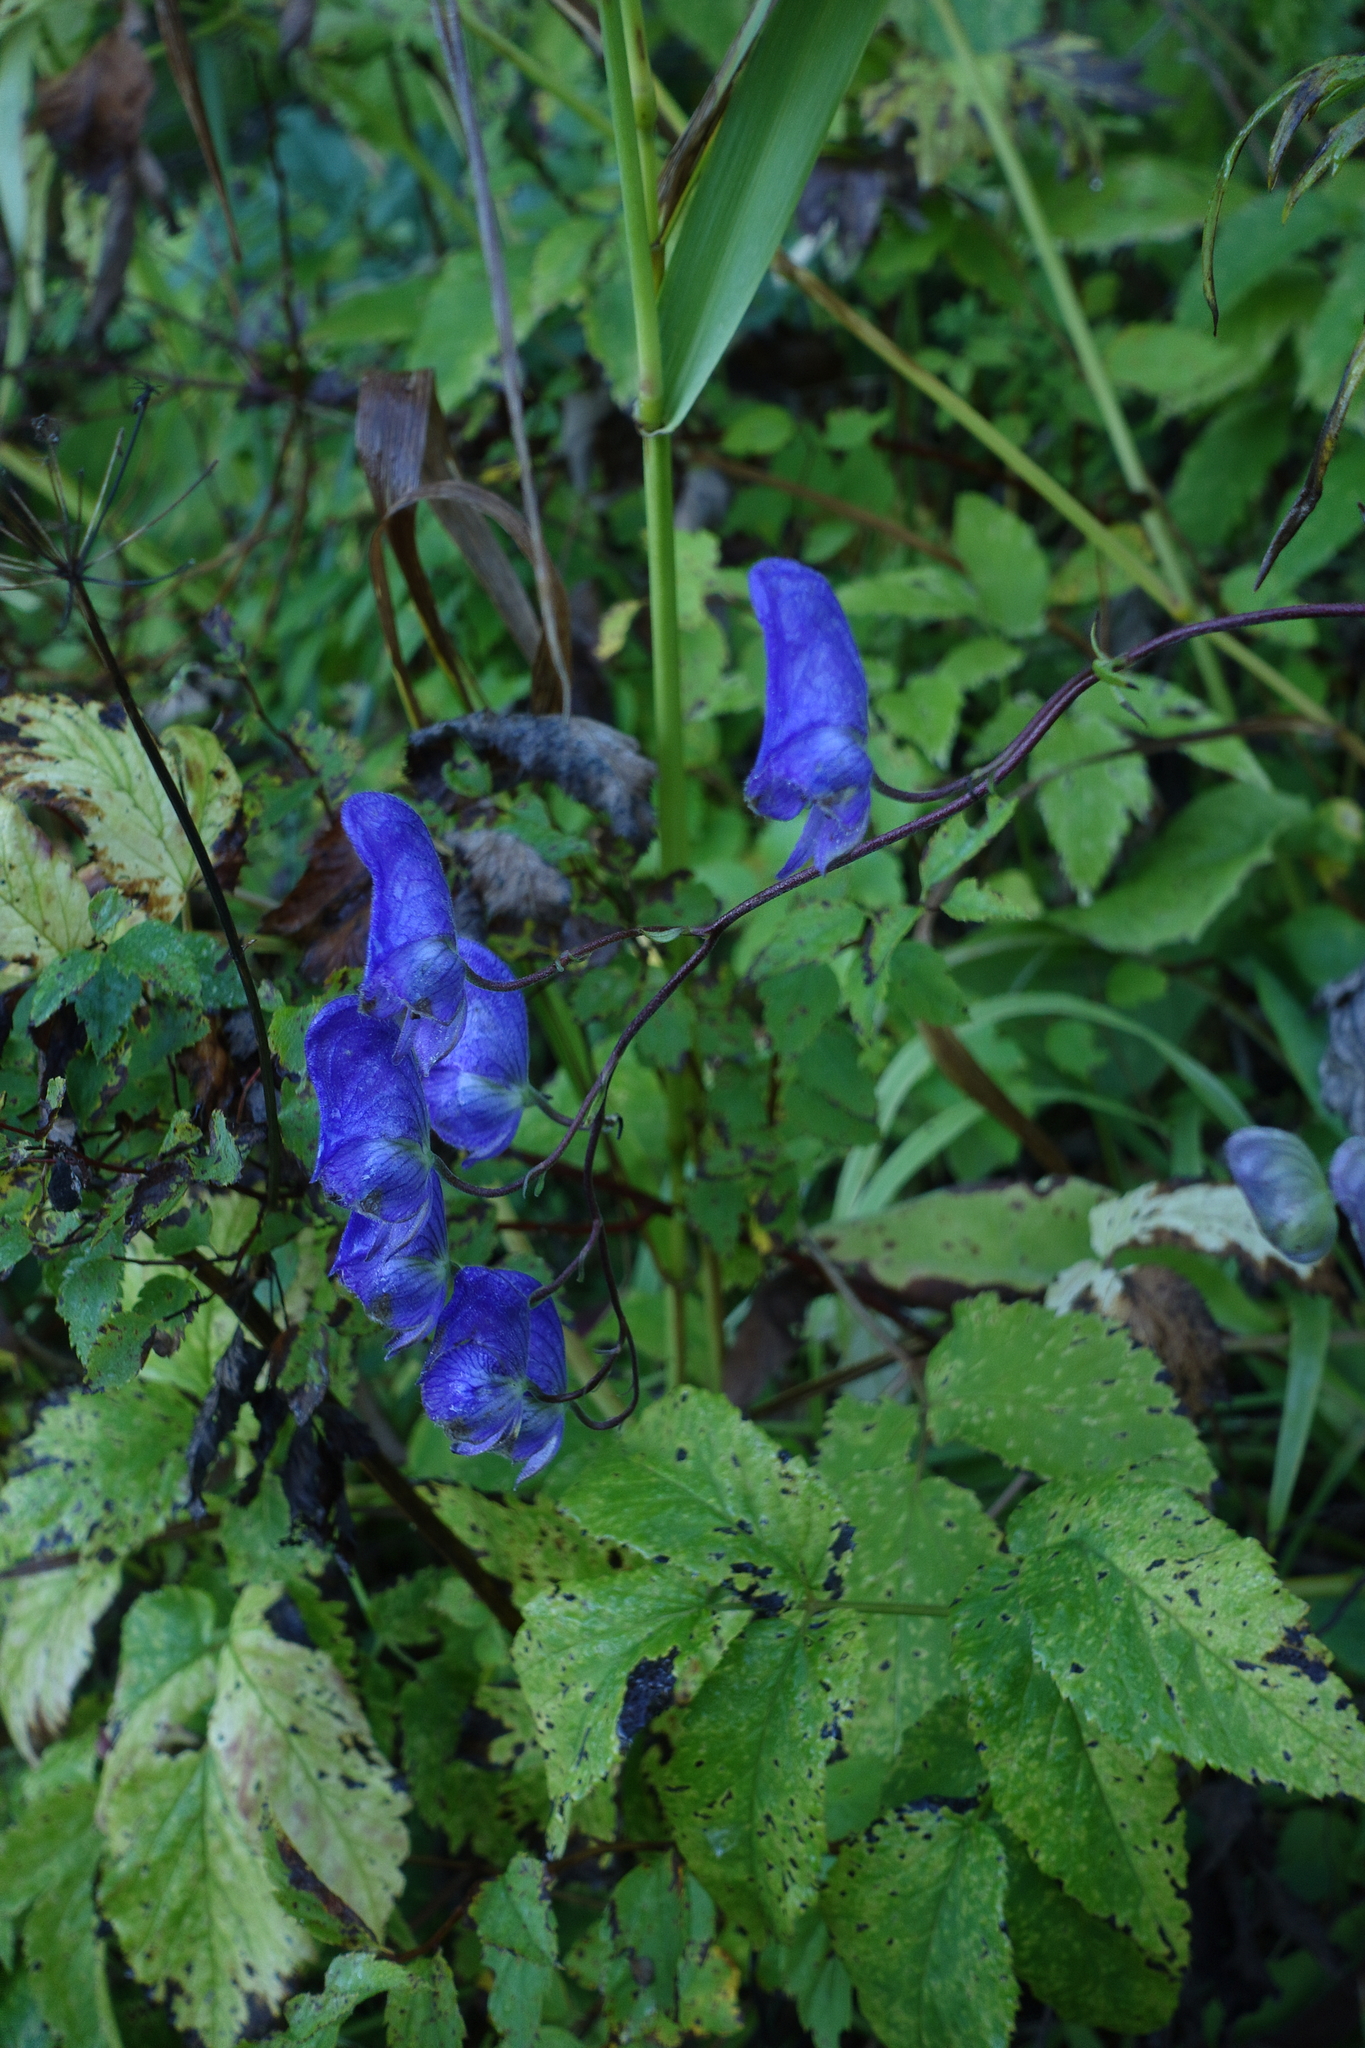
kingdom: Plantae
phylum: Tracheophyta
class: Magnoliopsida
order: Ranunculales
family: Ranunculaceae
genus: Aconitum
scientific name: Aconitum volubile
